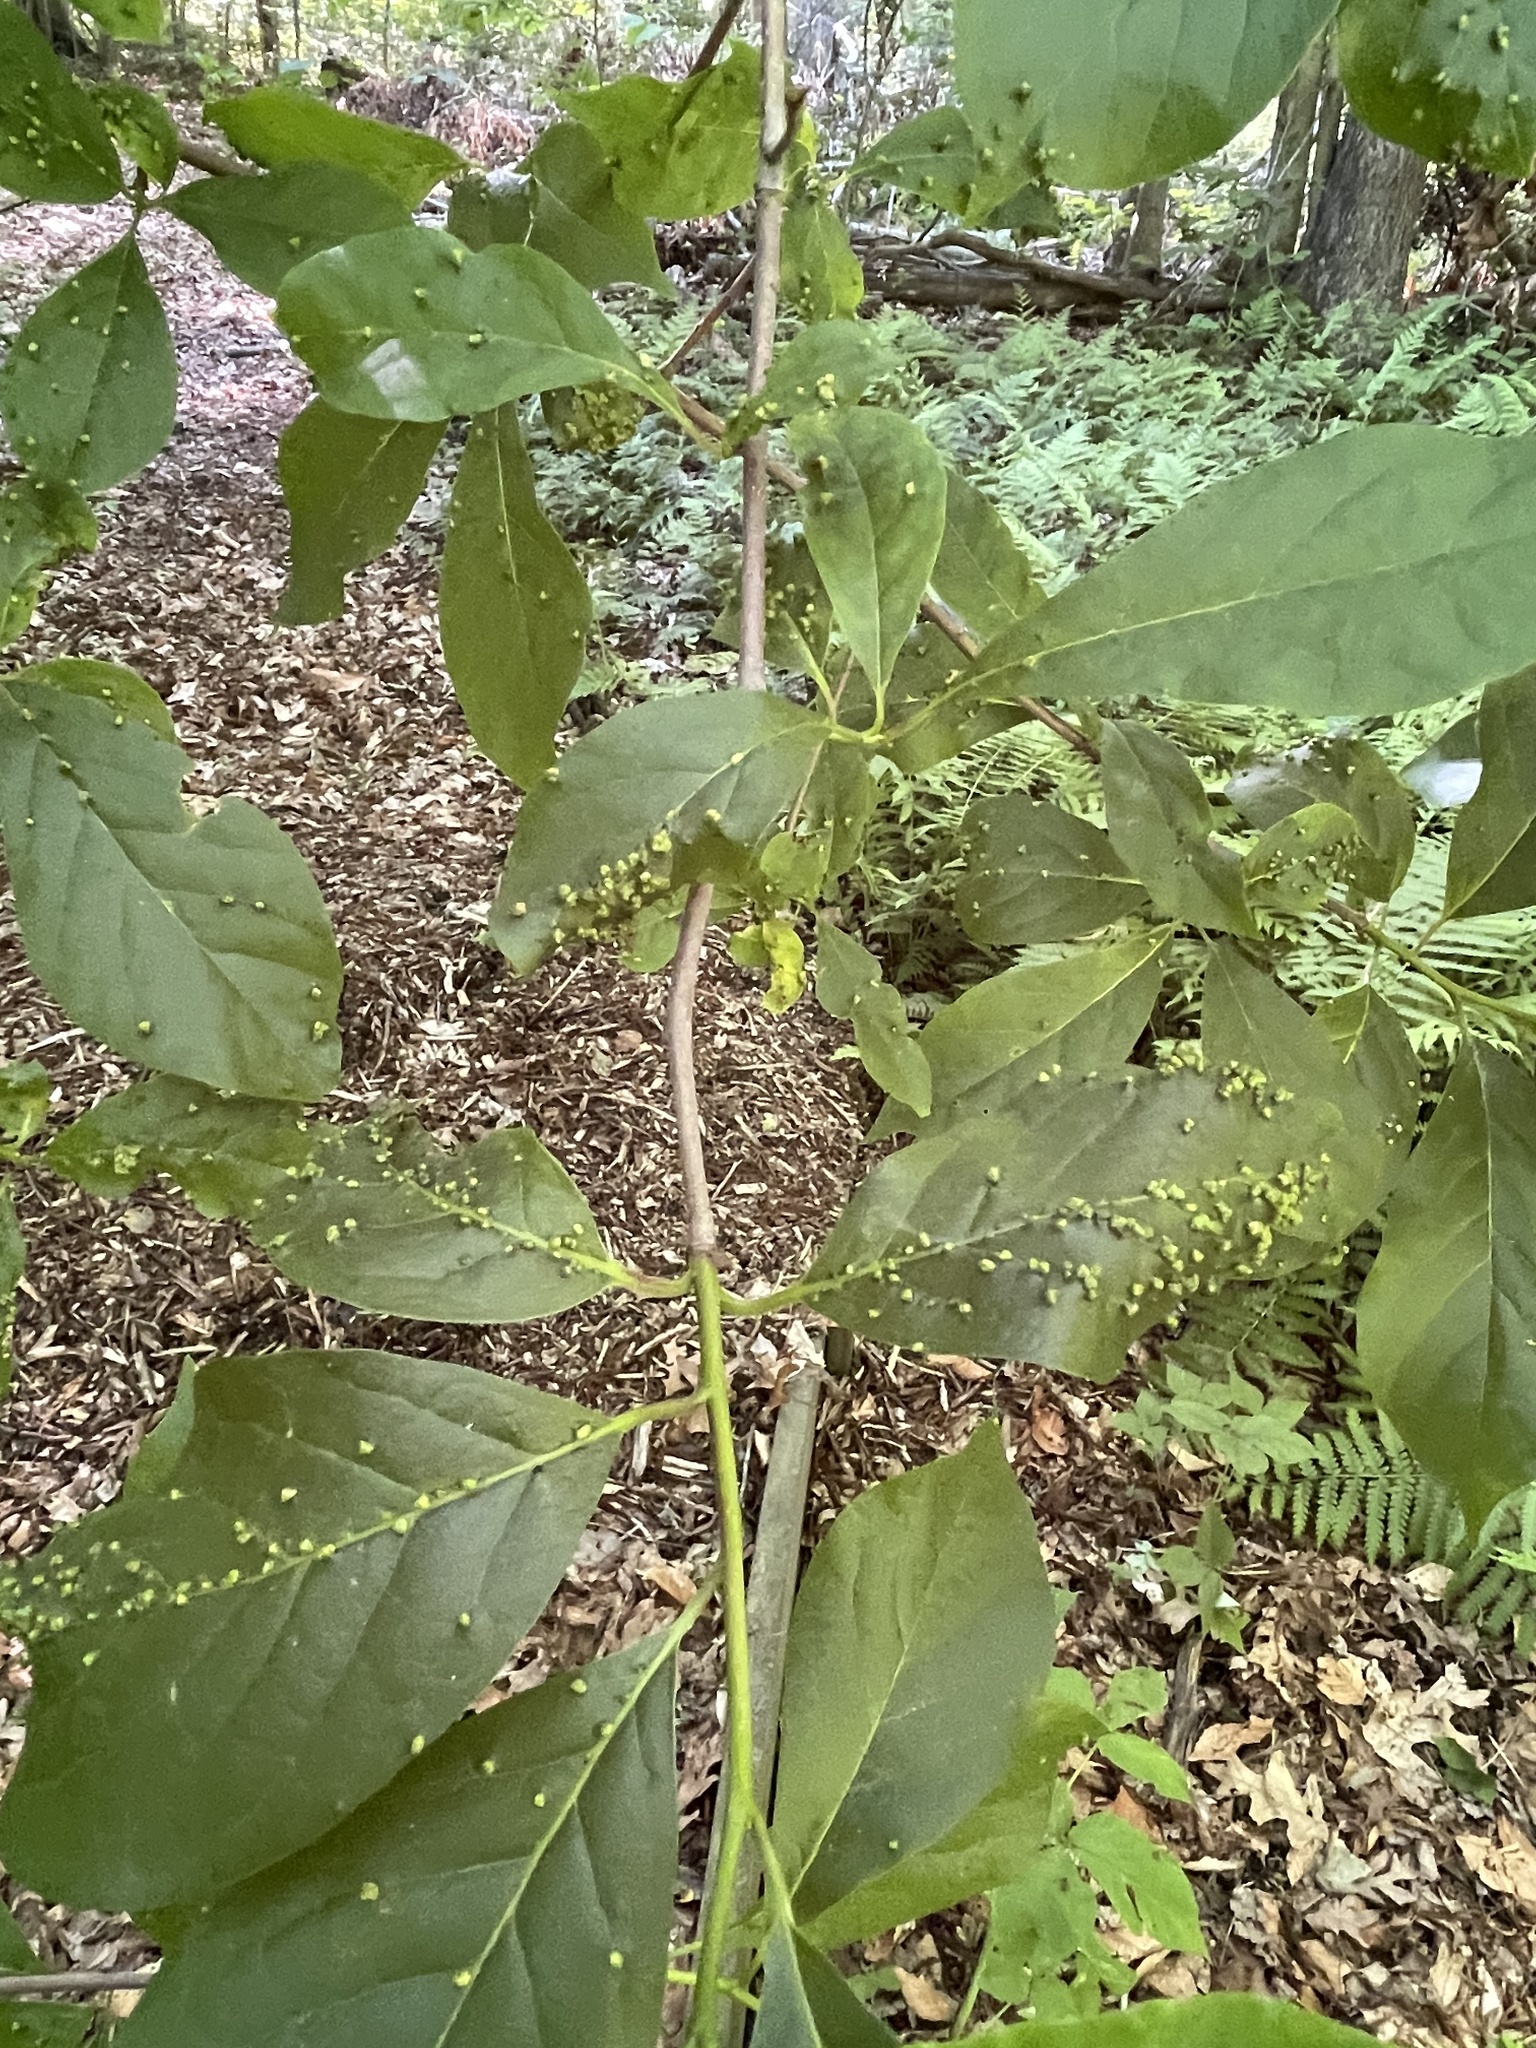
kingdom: Plantae
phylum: Tracheophyta
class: Magnoliopsida
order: Cornales
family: Nyssaceae
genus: Nyssa
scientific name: Nyssa sylvatica
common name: Black tupelo
